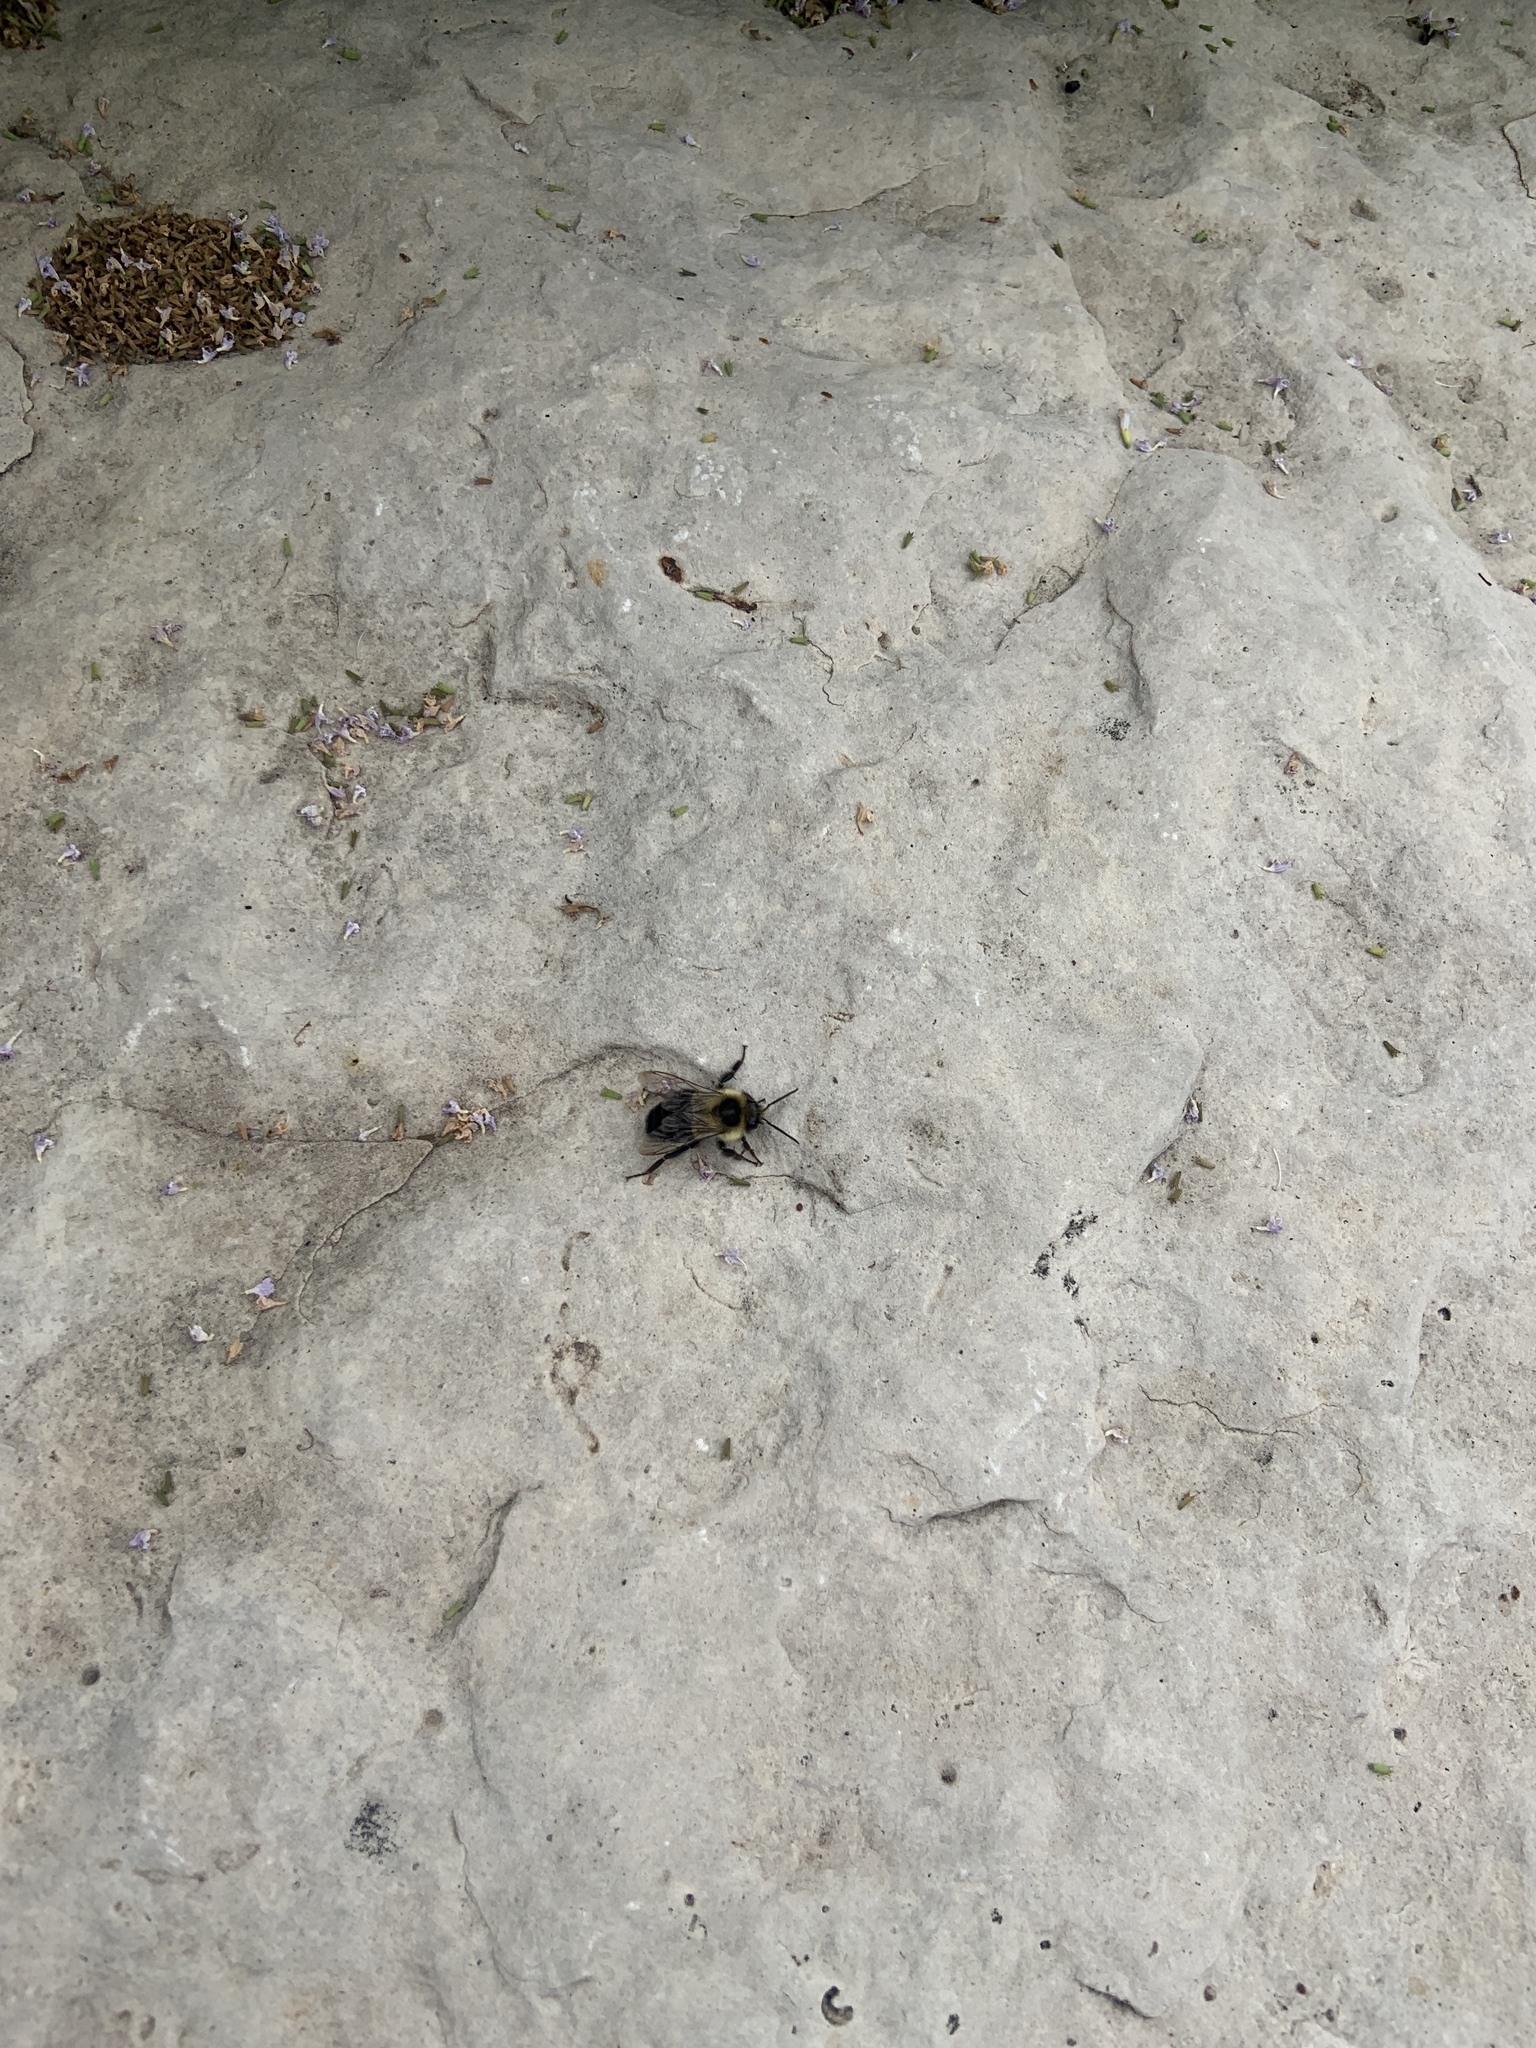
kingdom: Animalia
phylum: Arthropoda
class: Insecta
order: Hymenoptera
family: Apidae
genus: Bombus
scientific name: Bombus impatiens
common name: Common eastern bumble bee
